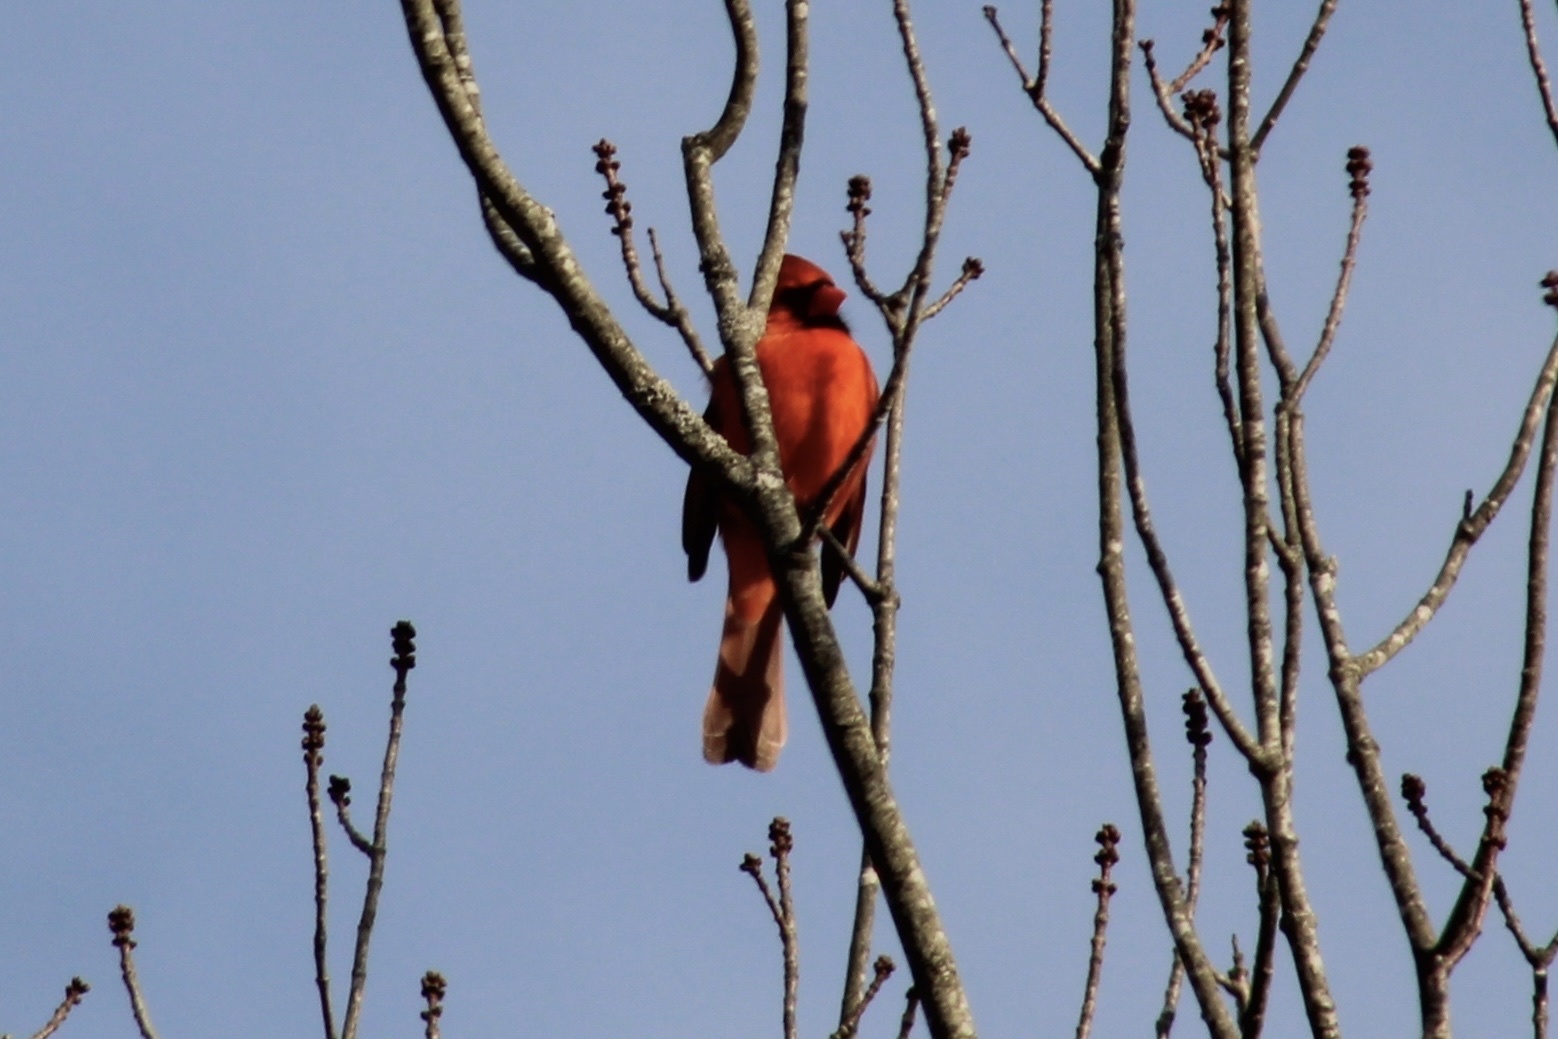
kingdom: Animalia
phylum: Chordata
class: Aves
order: Passeriformes
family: Cardinalidae
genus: Cardinalis
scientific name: Cardinalis cardinalis
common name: Northern cardinal
